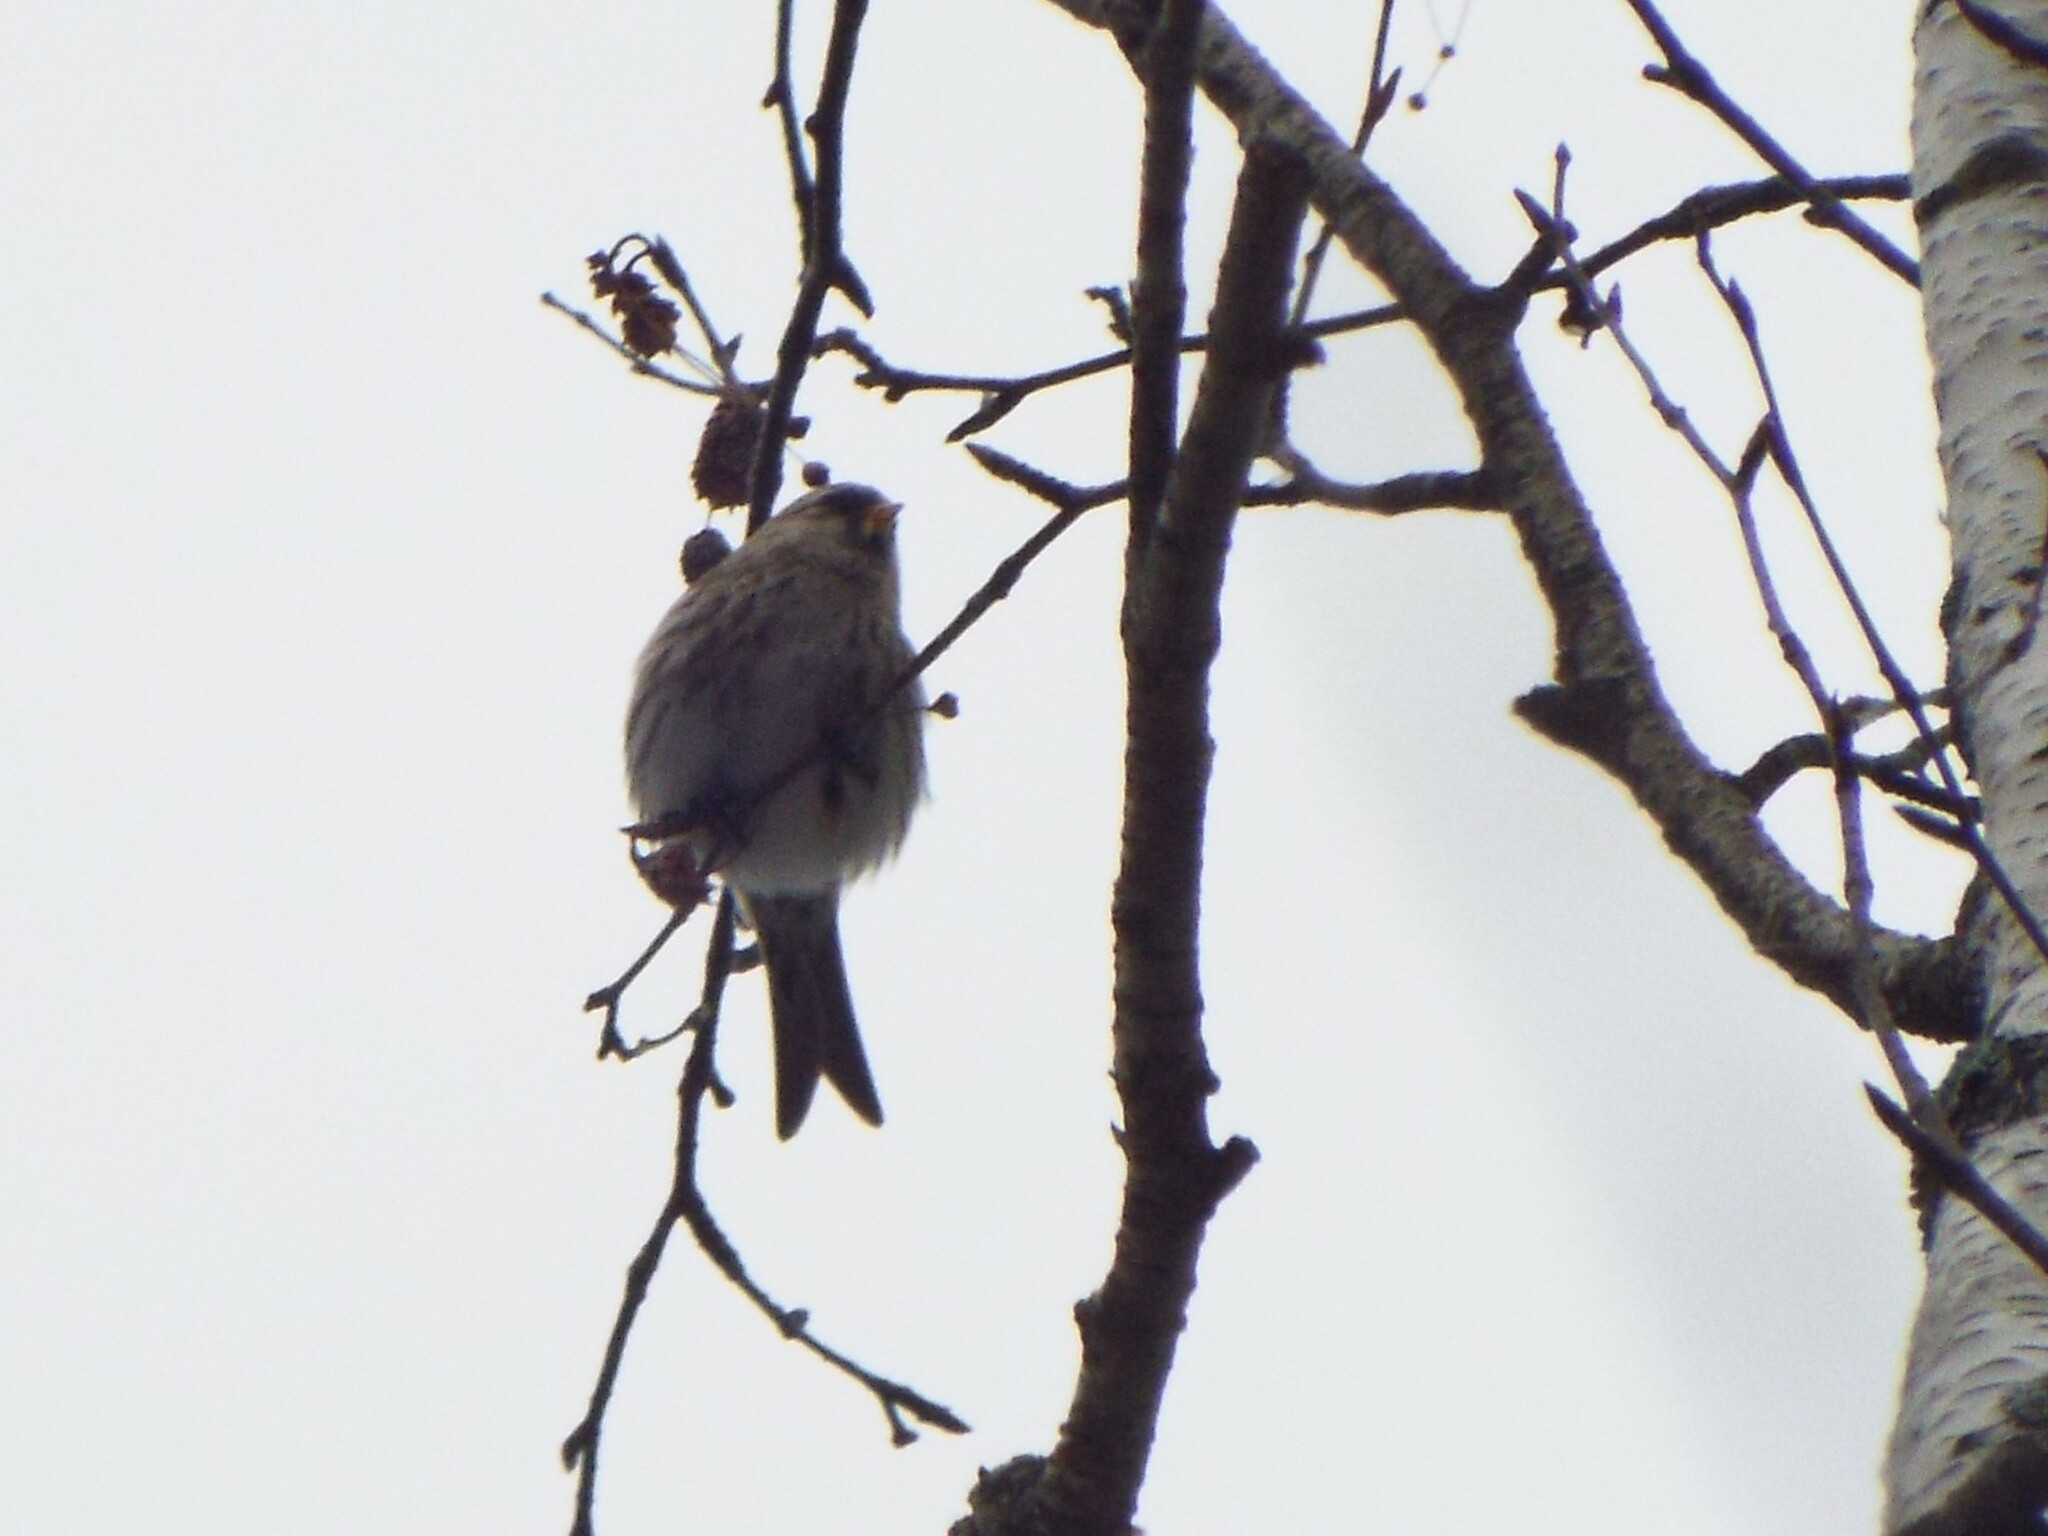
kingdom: Animalia
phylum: Chordata
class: Aves
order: Passeriformes
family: Fringillidae
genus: Acanthis
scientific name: Acanthis flammea
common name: Common redpoll
